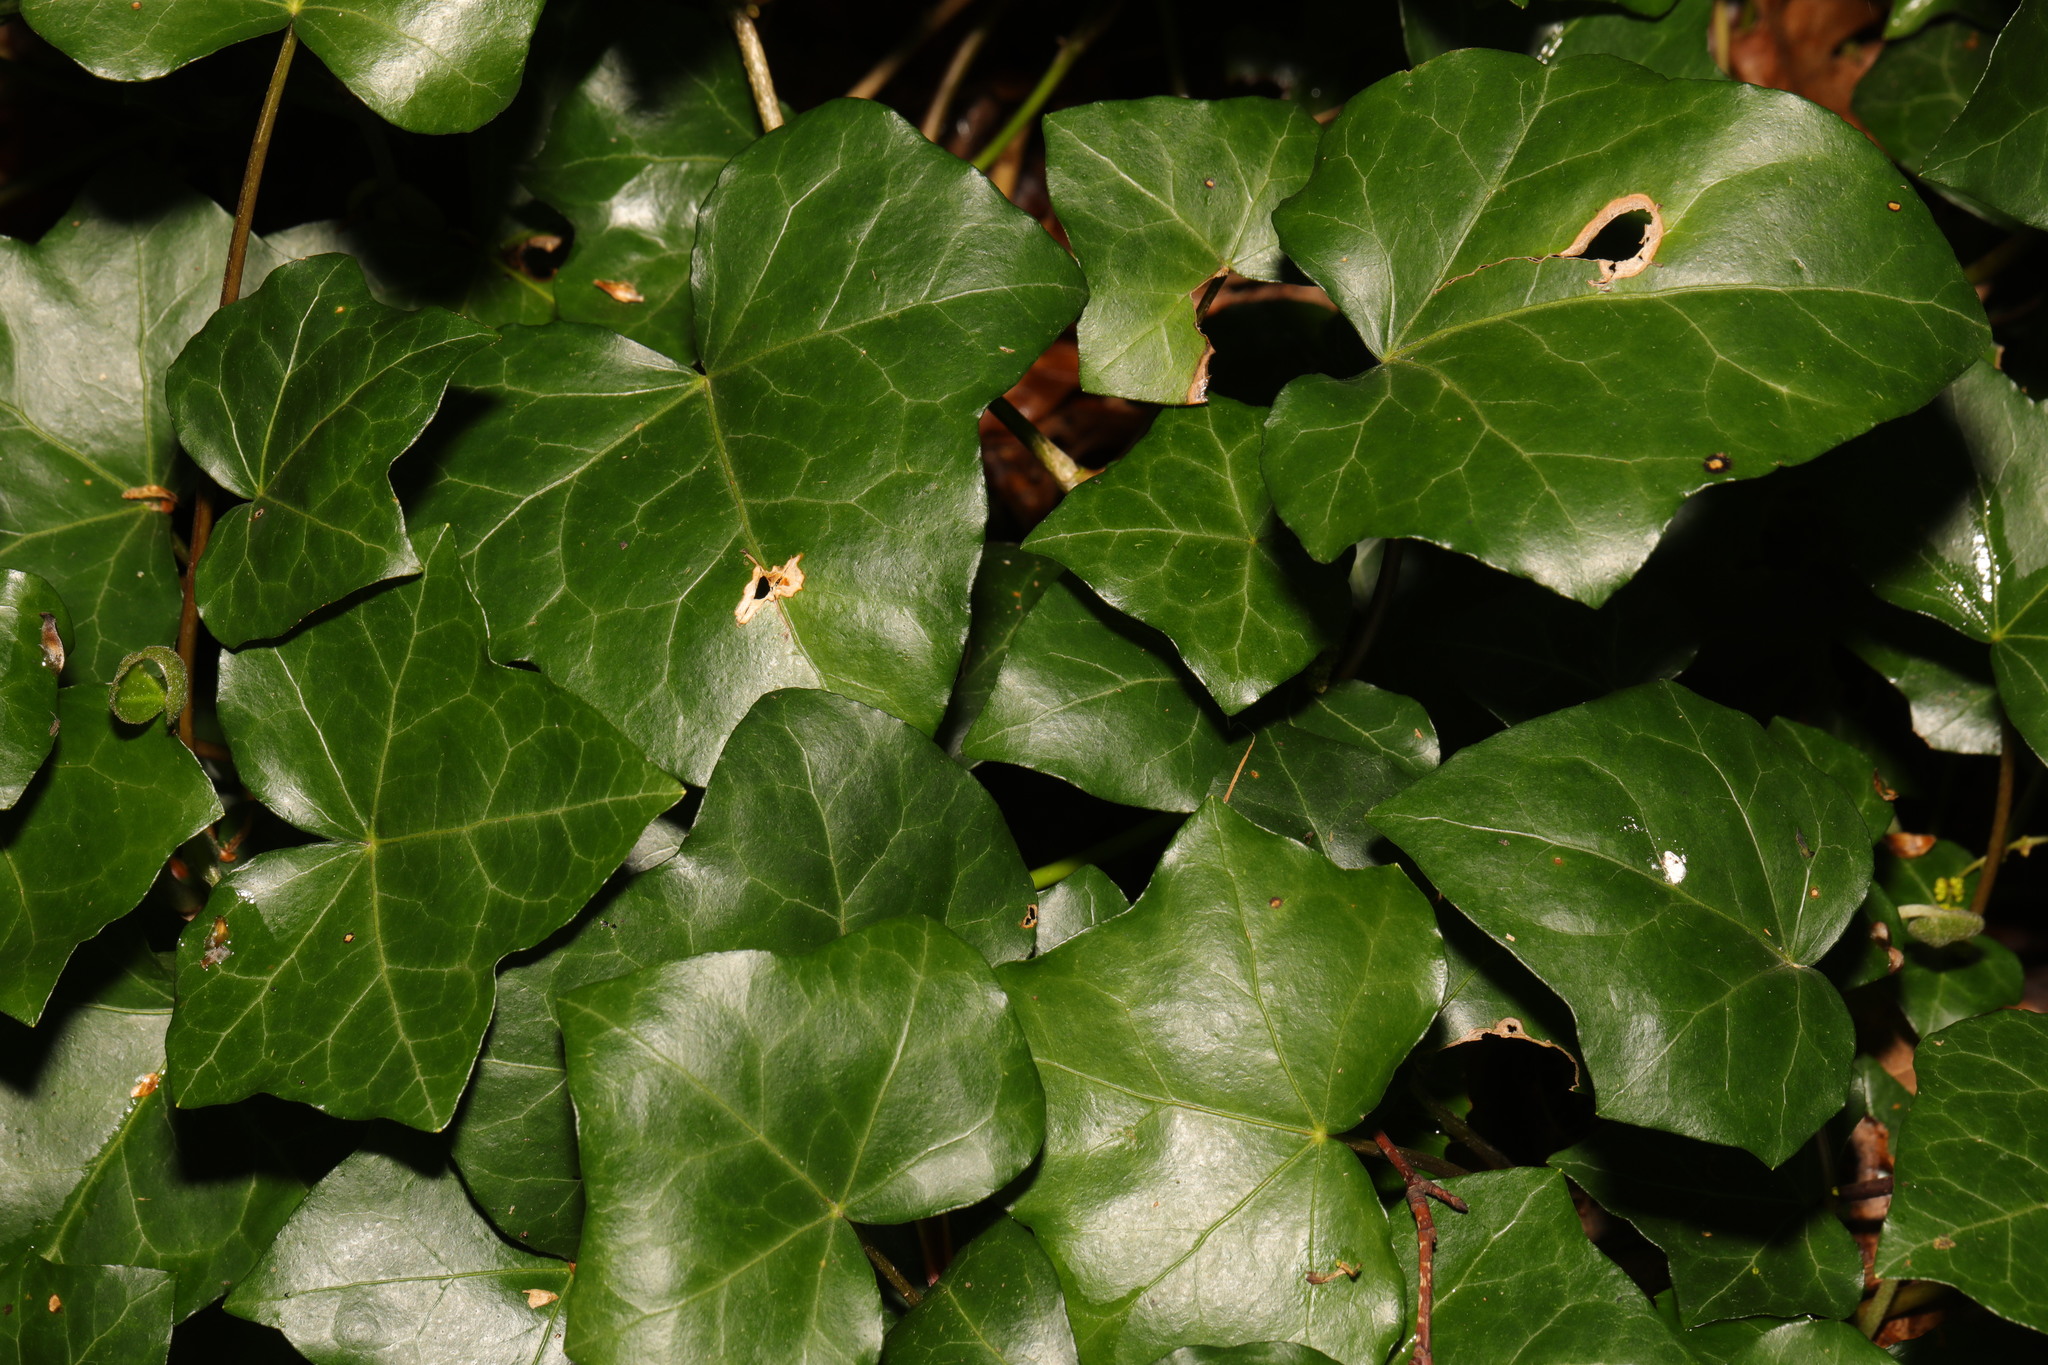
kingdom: Plantae
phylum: Tracheophyta
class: Magnoliopsida
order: Apiales
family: Araliaceae
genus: Hedera
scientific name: Hedera helix
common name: Ivy
